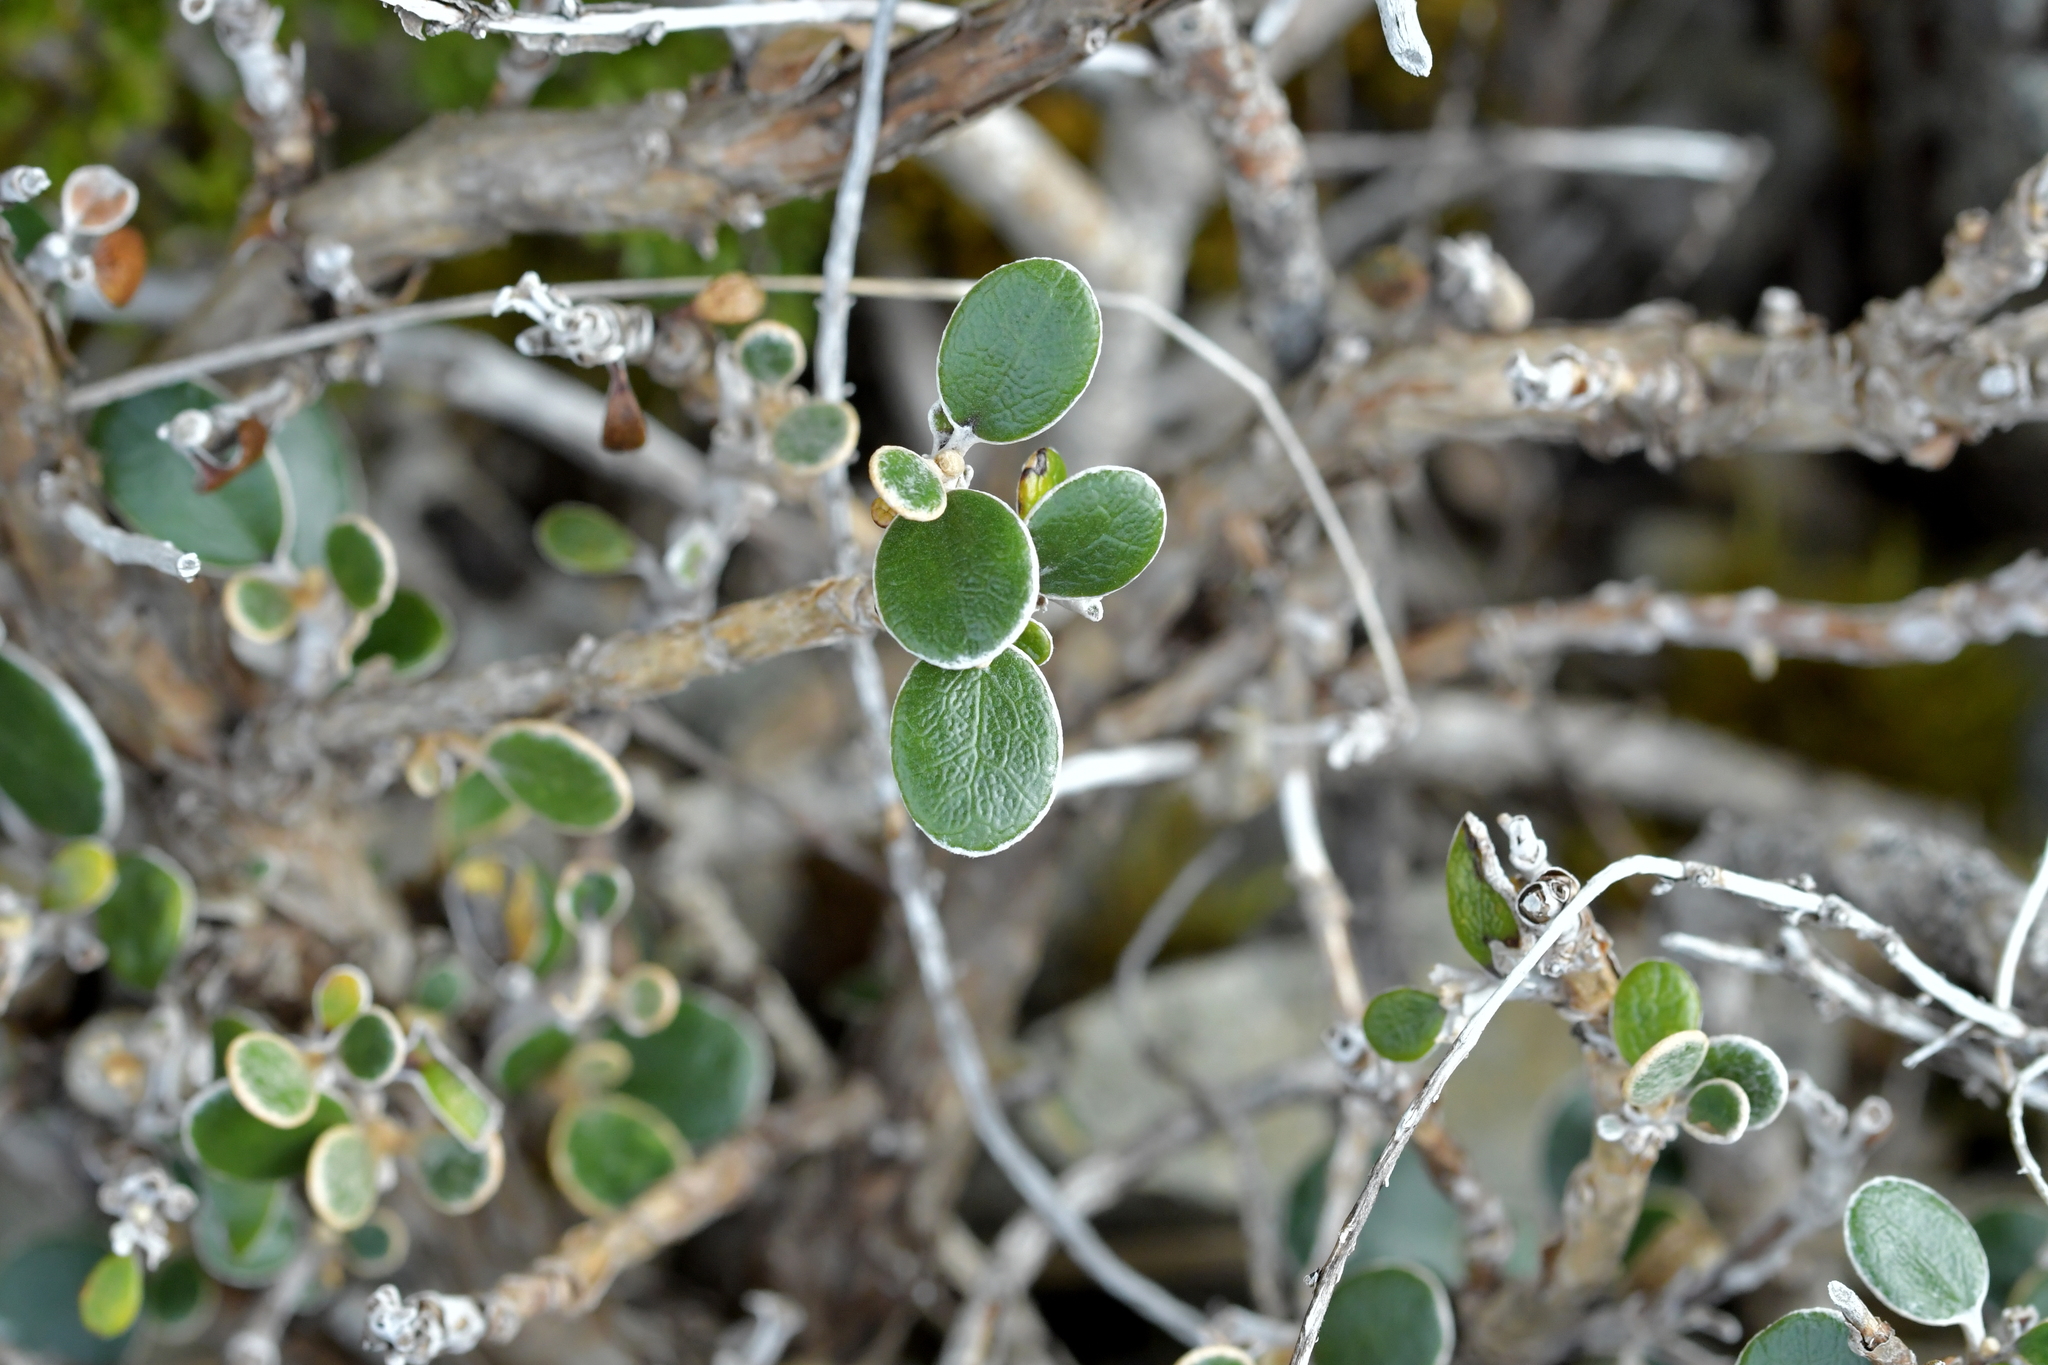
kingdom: Plantae
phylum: Tracheophyta
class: Magnoliopsida
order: Asterales
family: Asteraceae
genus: Brachyglottis
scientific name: Brachyglottis bidwillii
